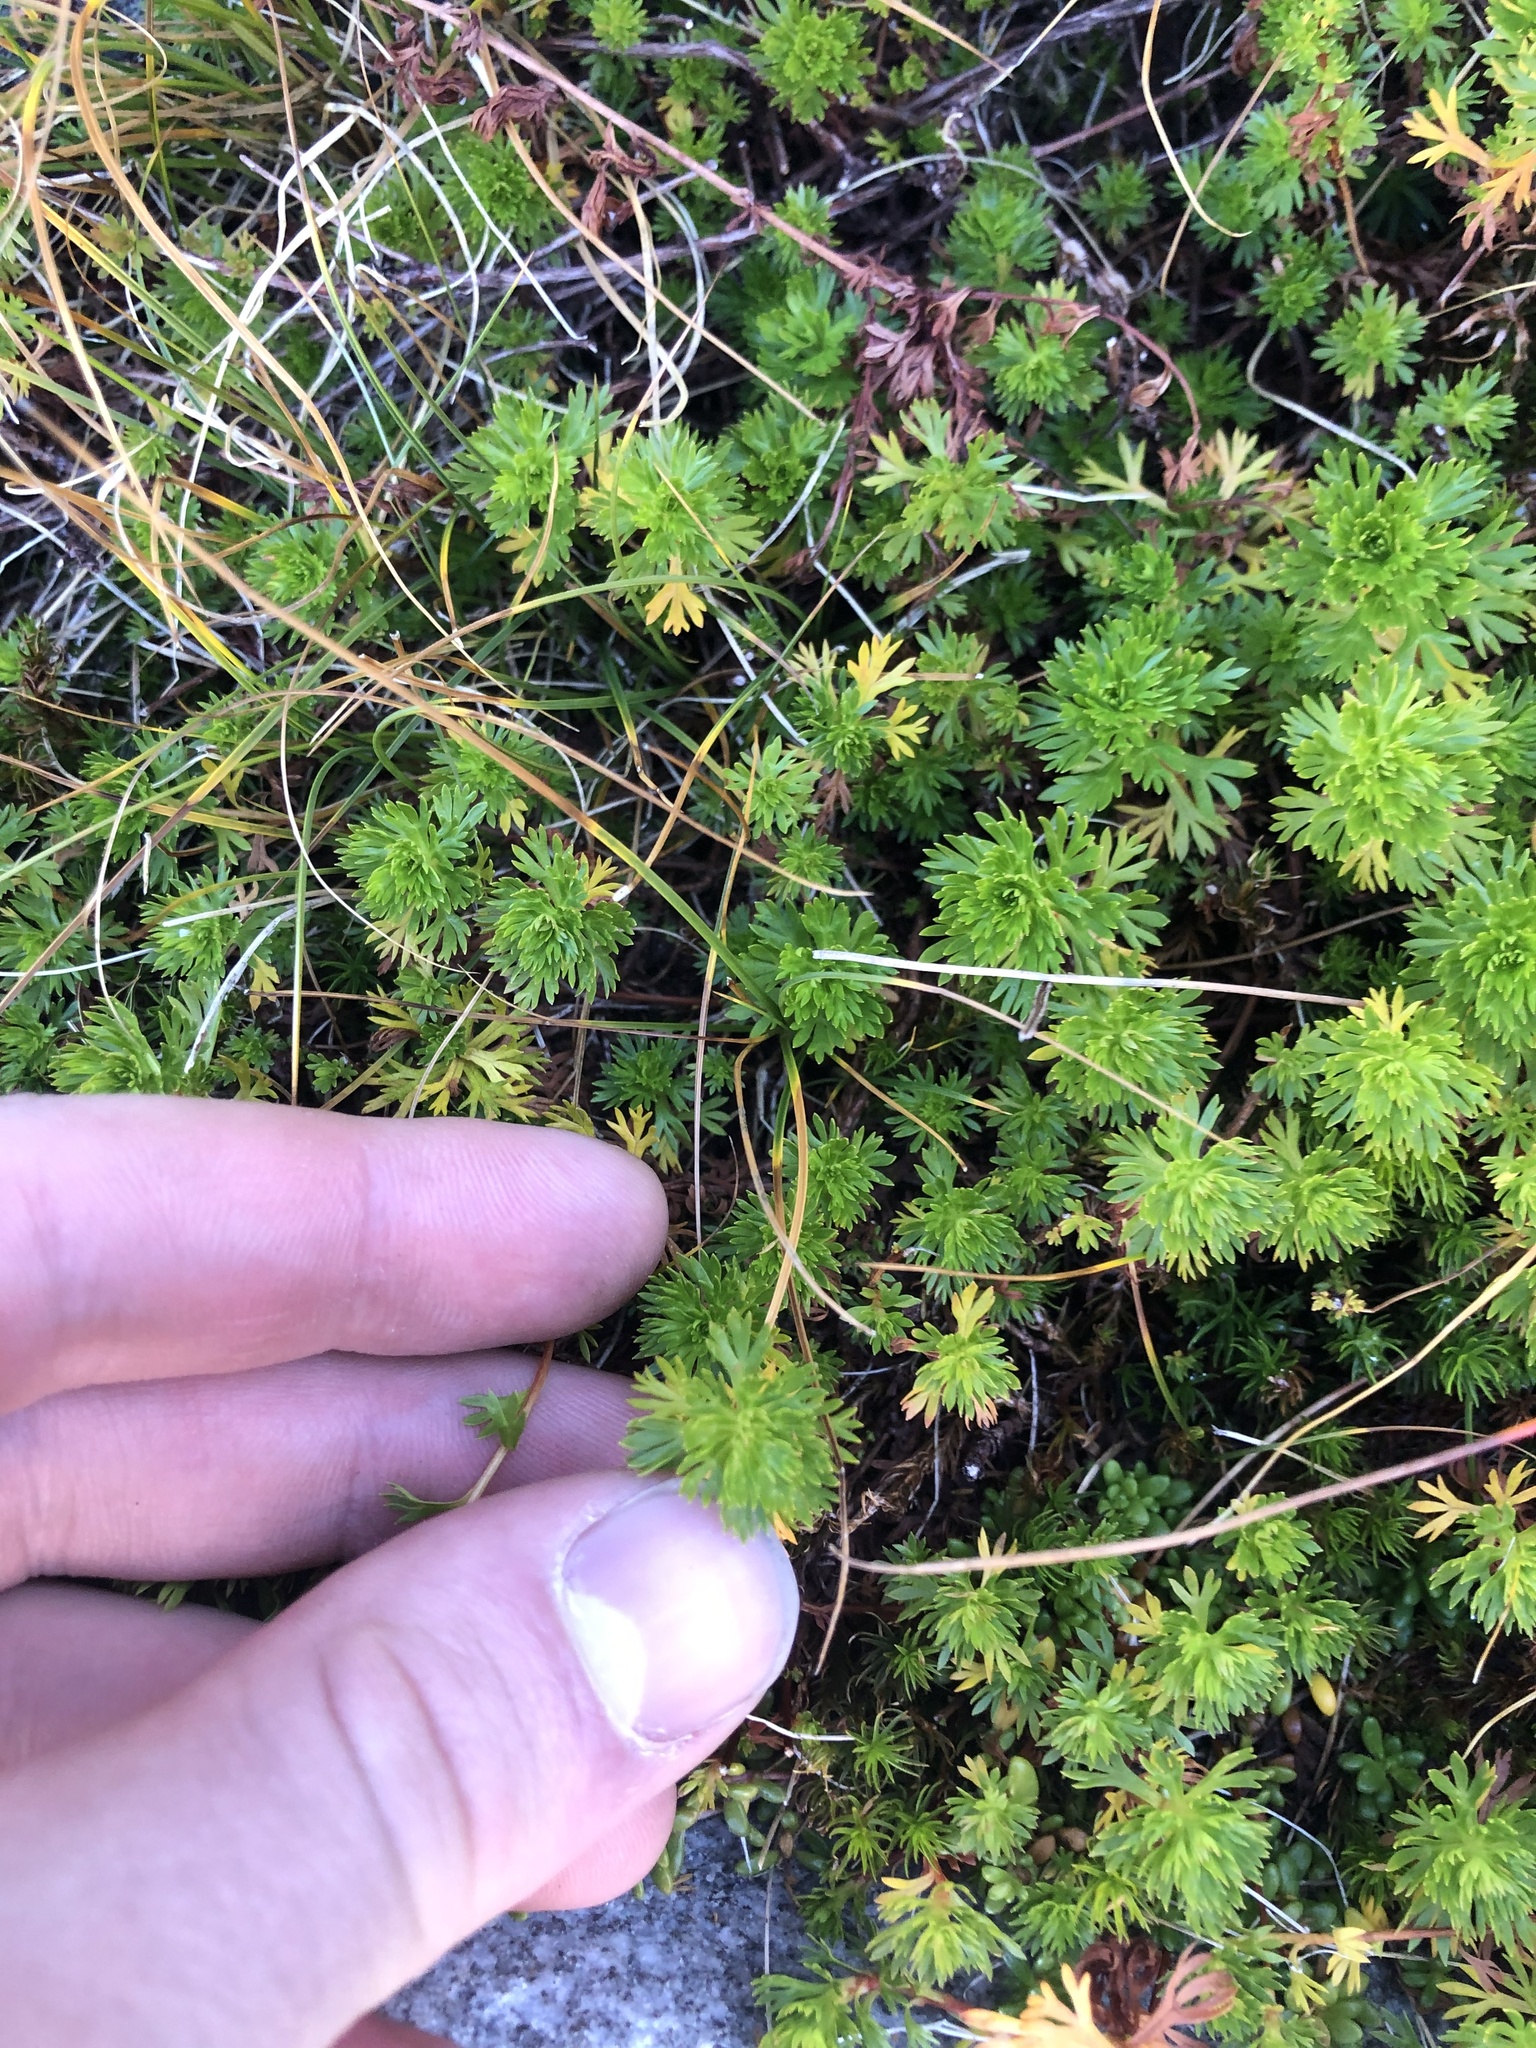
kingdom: Plantae
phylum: Tracheophyta
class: Magnoliopsida
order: Rosales
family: Rosaceae
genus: Luetkea
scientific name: Luetkea pectinata
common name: Partridgefoot
